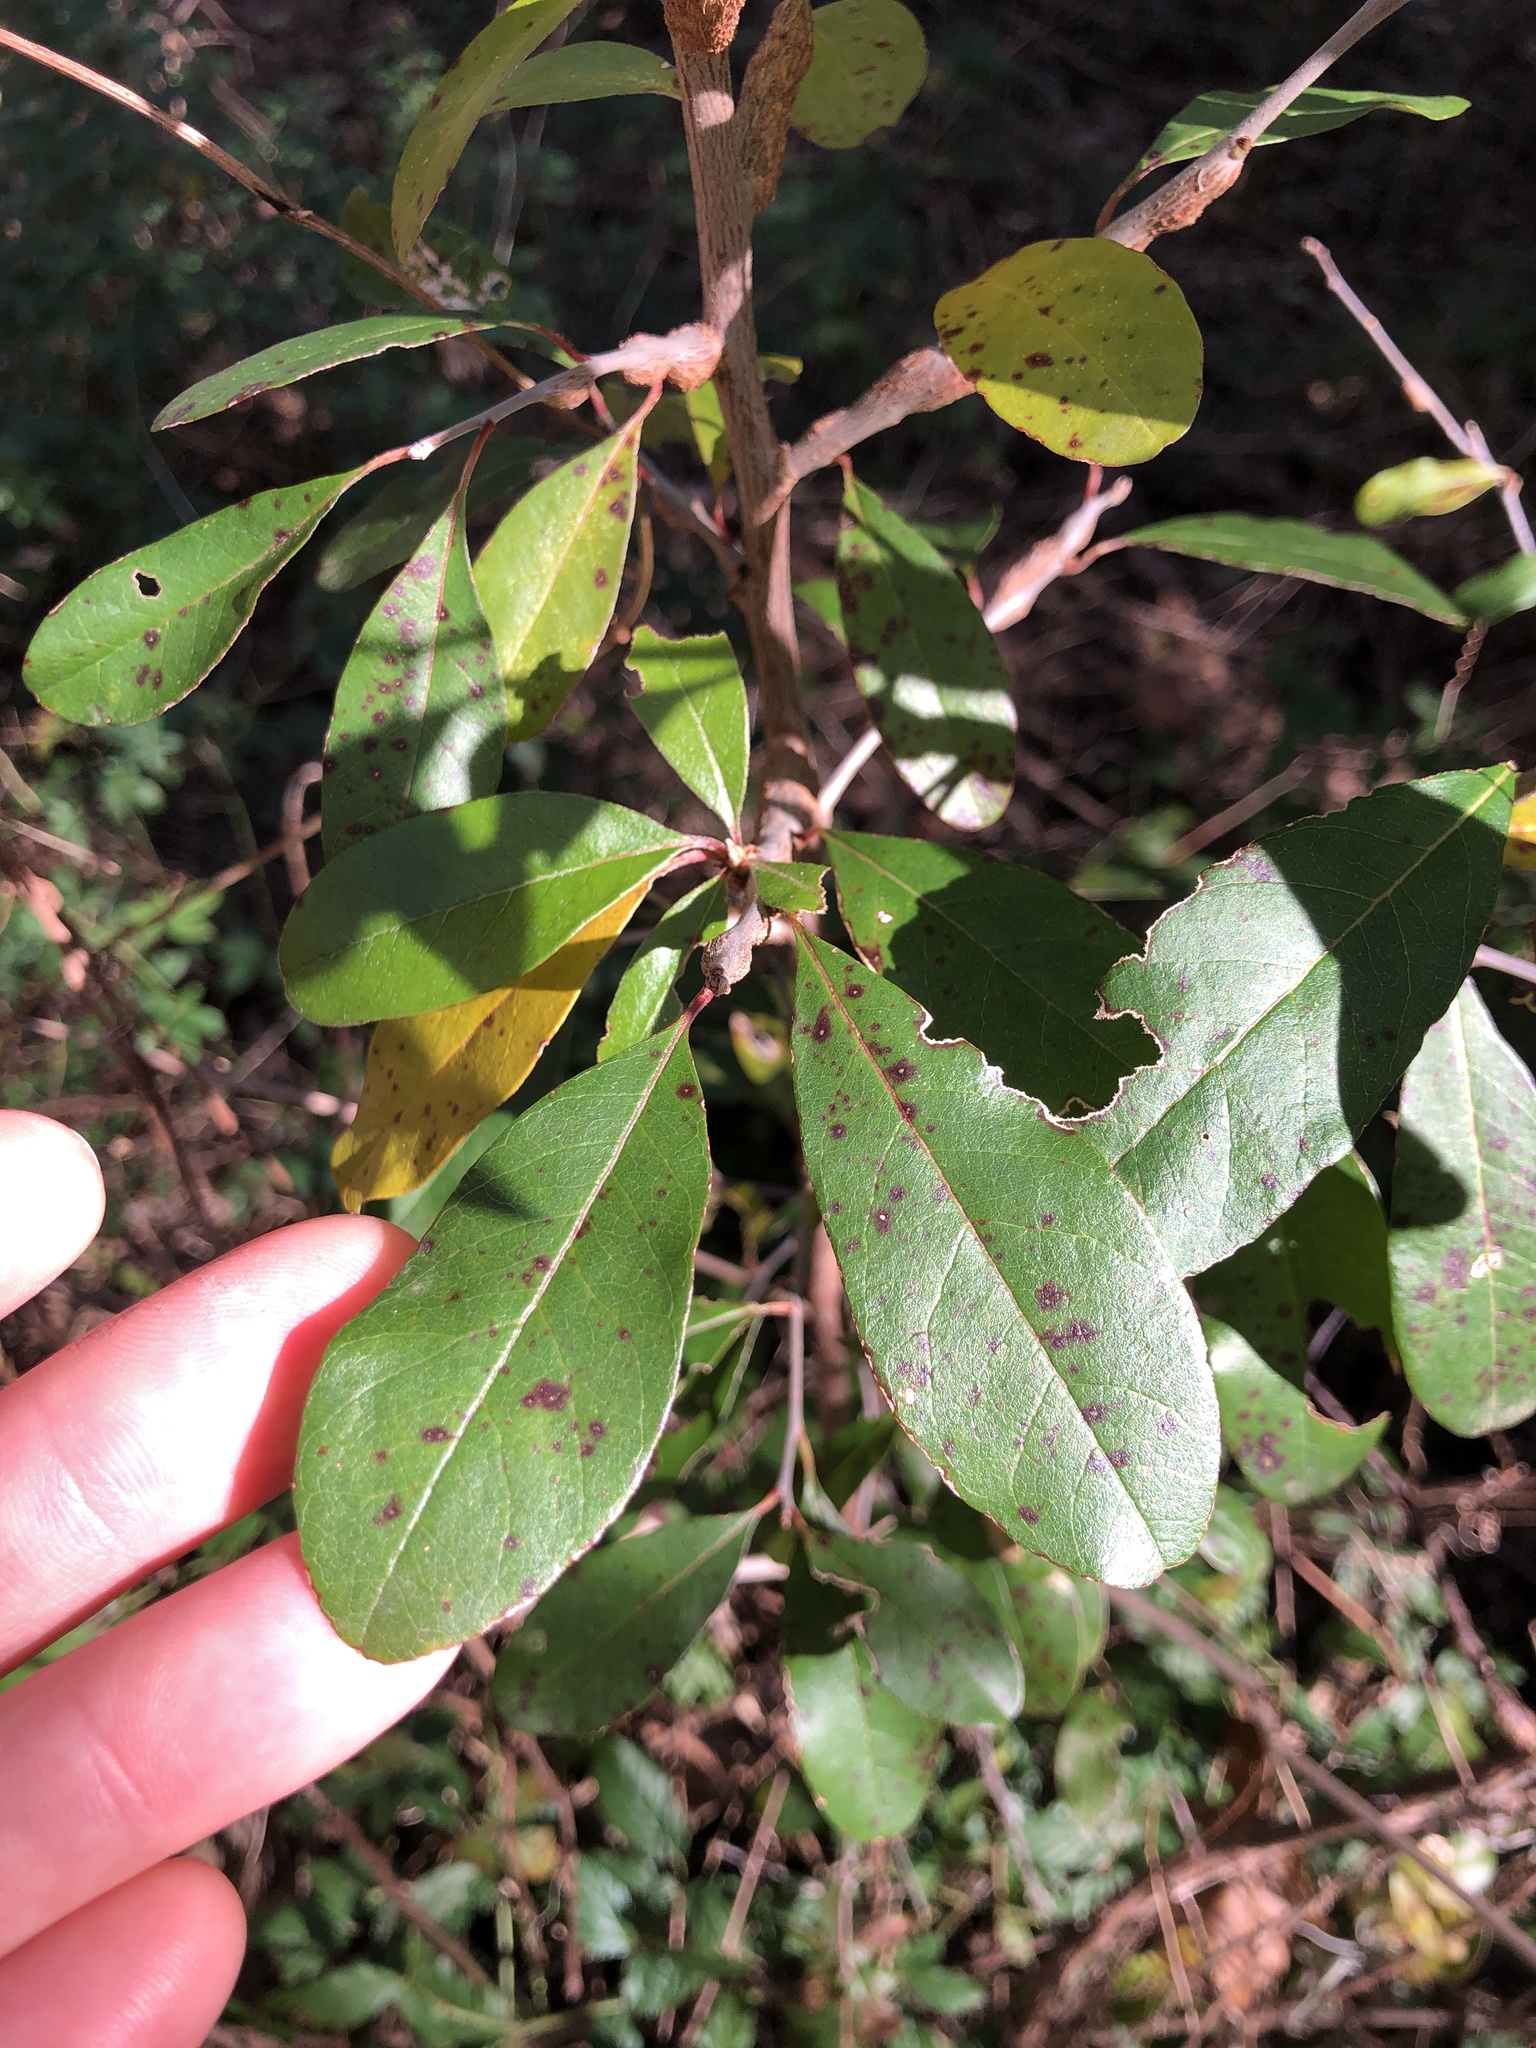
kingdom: Plantae
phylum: Tracheophyta
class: Magnoliopsida
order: Ericales
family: Sapotaceae
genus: Sideroxylon
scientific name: Sideroxylon lanuginosum
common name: Chittamwood
